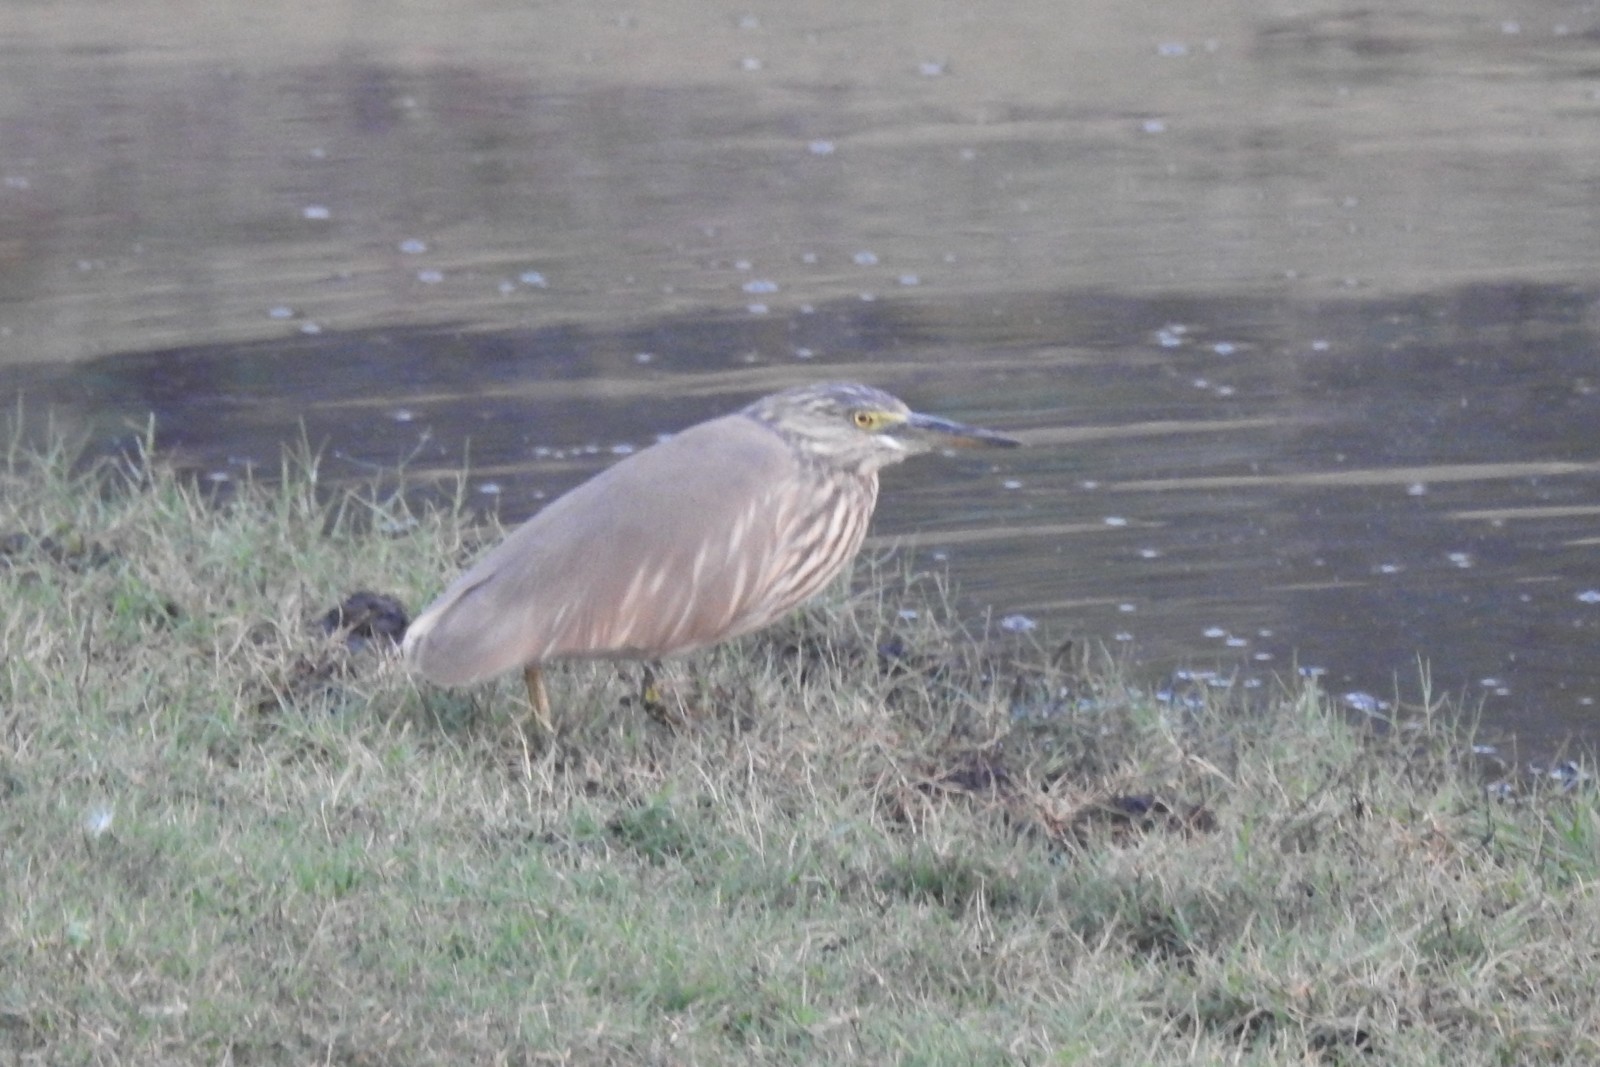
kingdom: Animalia
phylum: Chordata
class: Aves
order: Pelecaniformes
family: Ardeidae
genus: Ardeola
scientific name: Ardeola grayii
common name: Indian pond heron
